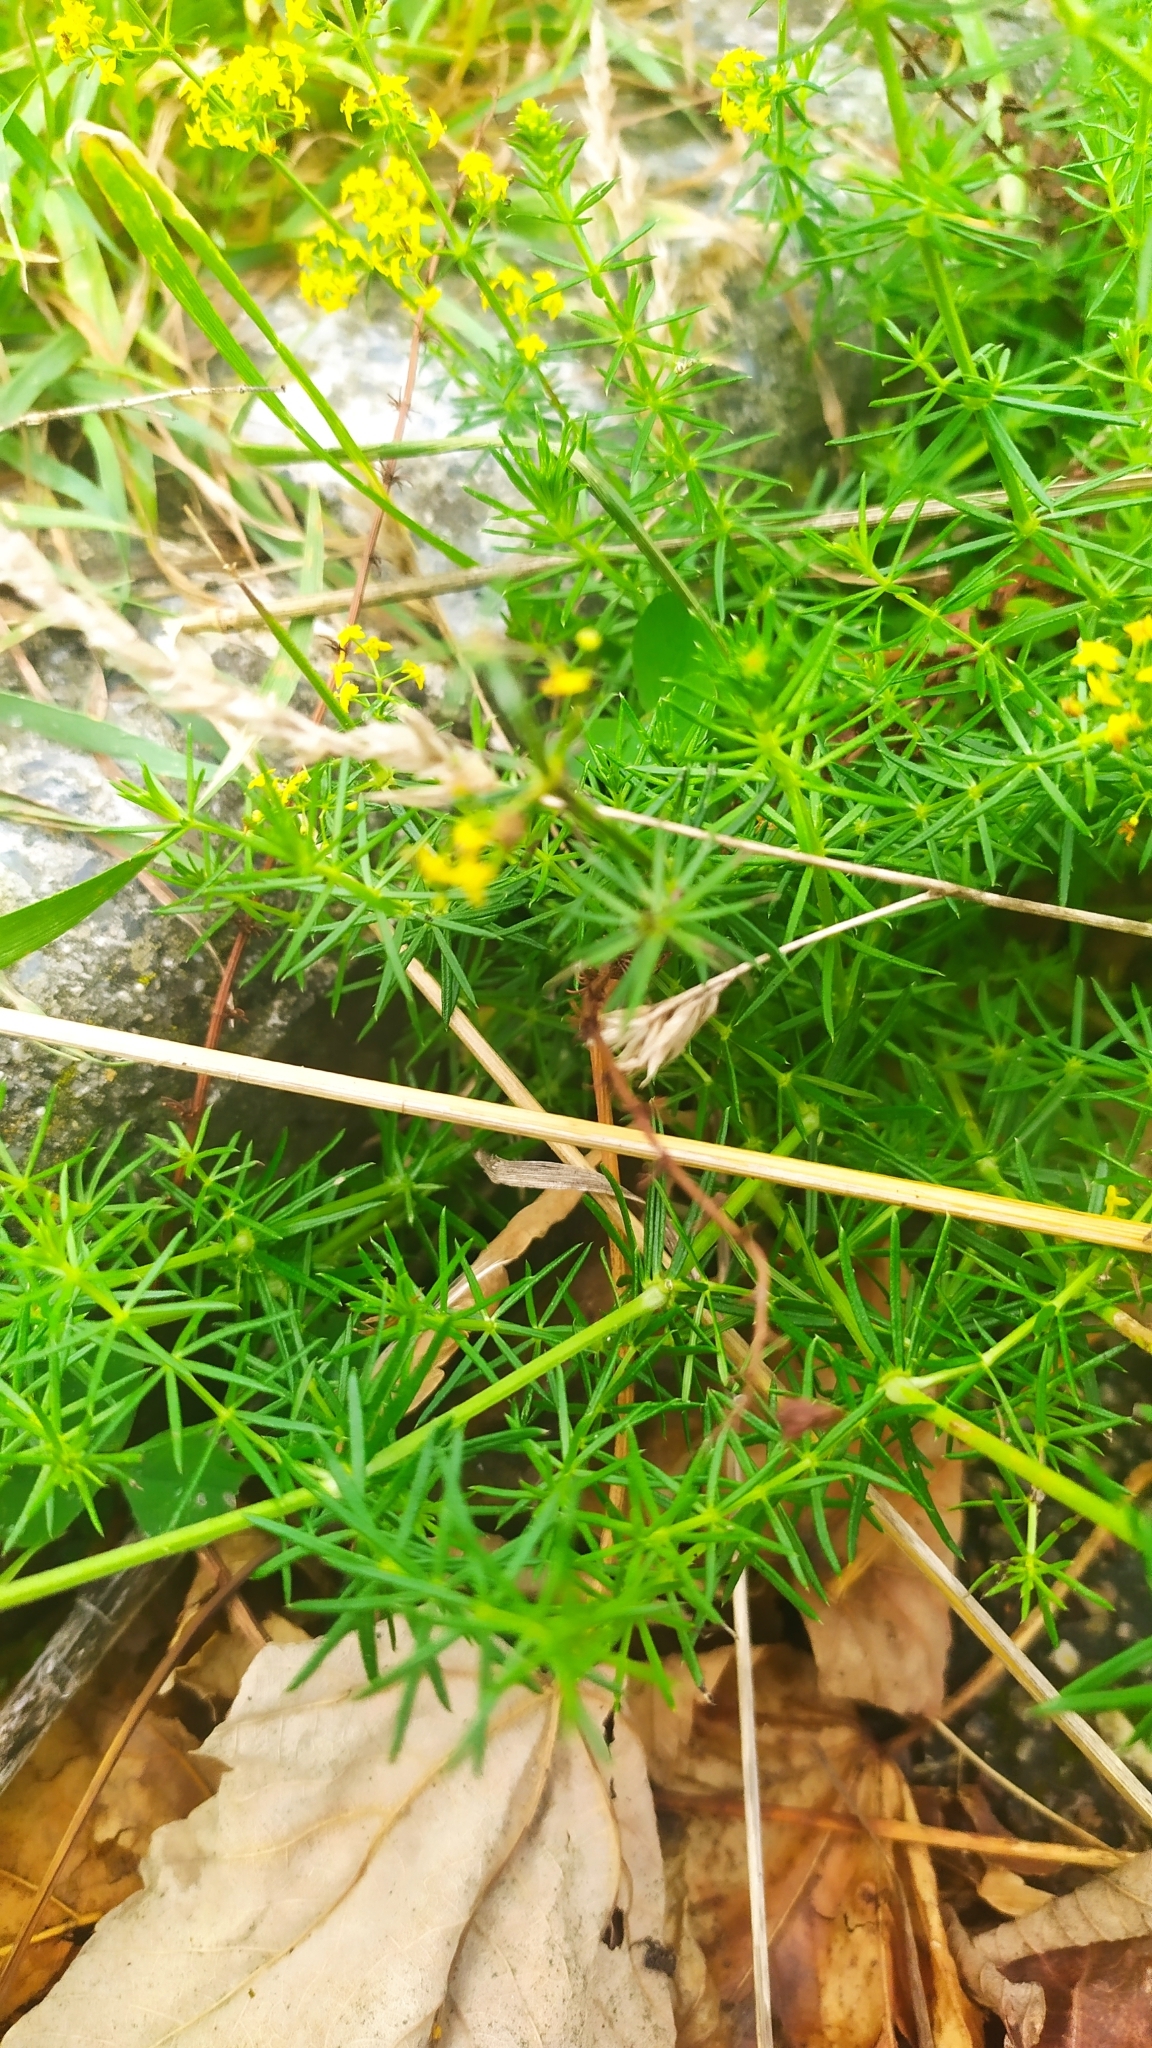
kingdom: Plantae
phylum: Tracheophyta
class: Magnoliopsida
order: Gentianales
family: Rubiaceae
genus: Galium
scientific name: Galium verum
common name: Lady's bedstraw
